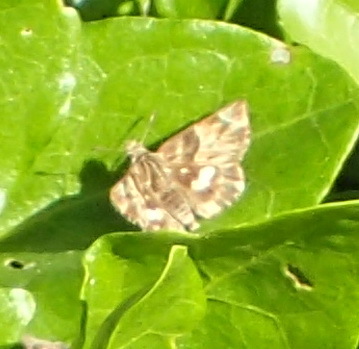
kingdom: Animalia
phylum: Arthropoda
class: Insecta
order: Lepidoptera
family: Hesperiidae
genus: Gomalia
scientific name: Gomalia elma
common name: Green-marbled skipper
